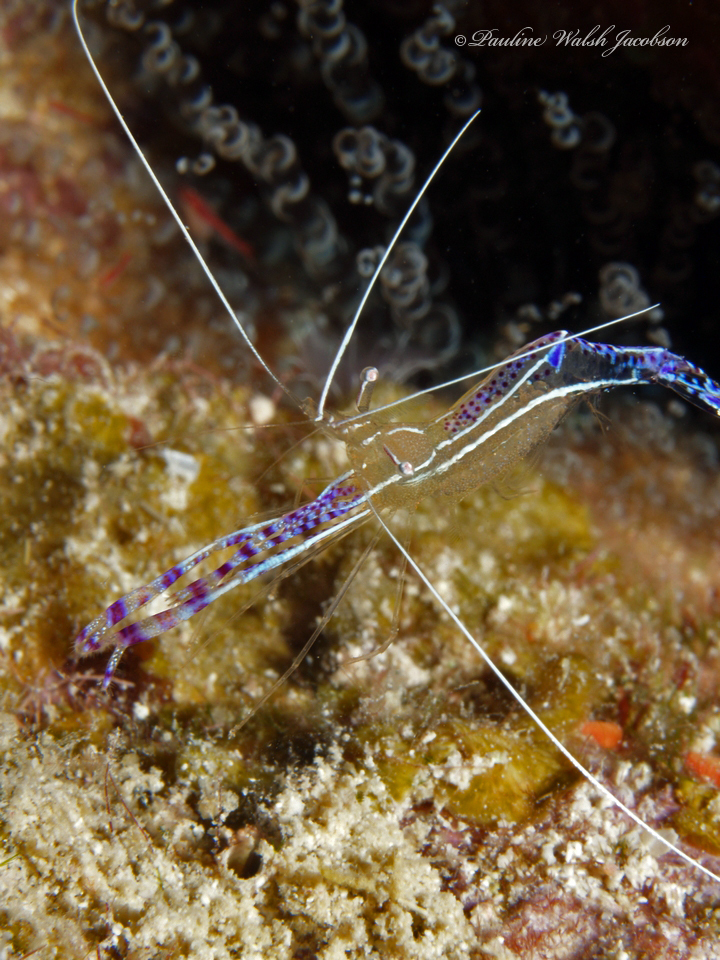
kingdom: Animalia
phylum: Arthropoda
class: Malacostraca
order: Decapoda
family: Palaemonidae
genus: Ancylomenes
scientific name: Ancylomenes pedersoni
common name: Pederson's cleaning shrimp
